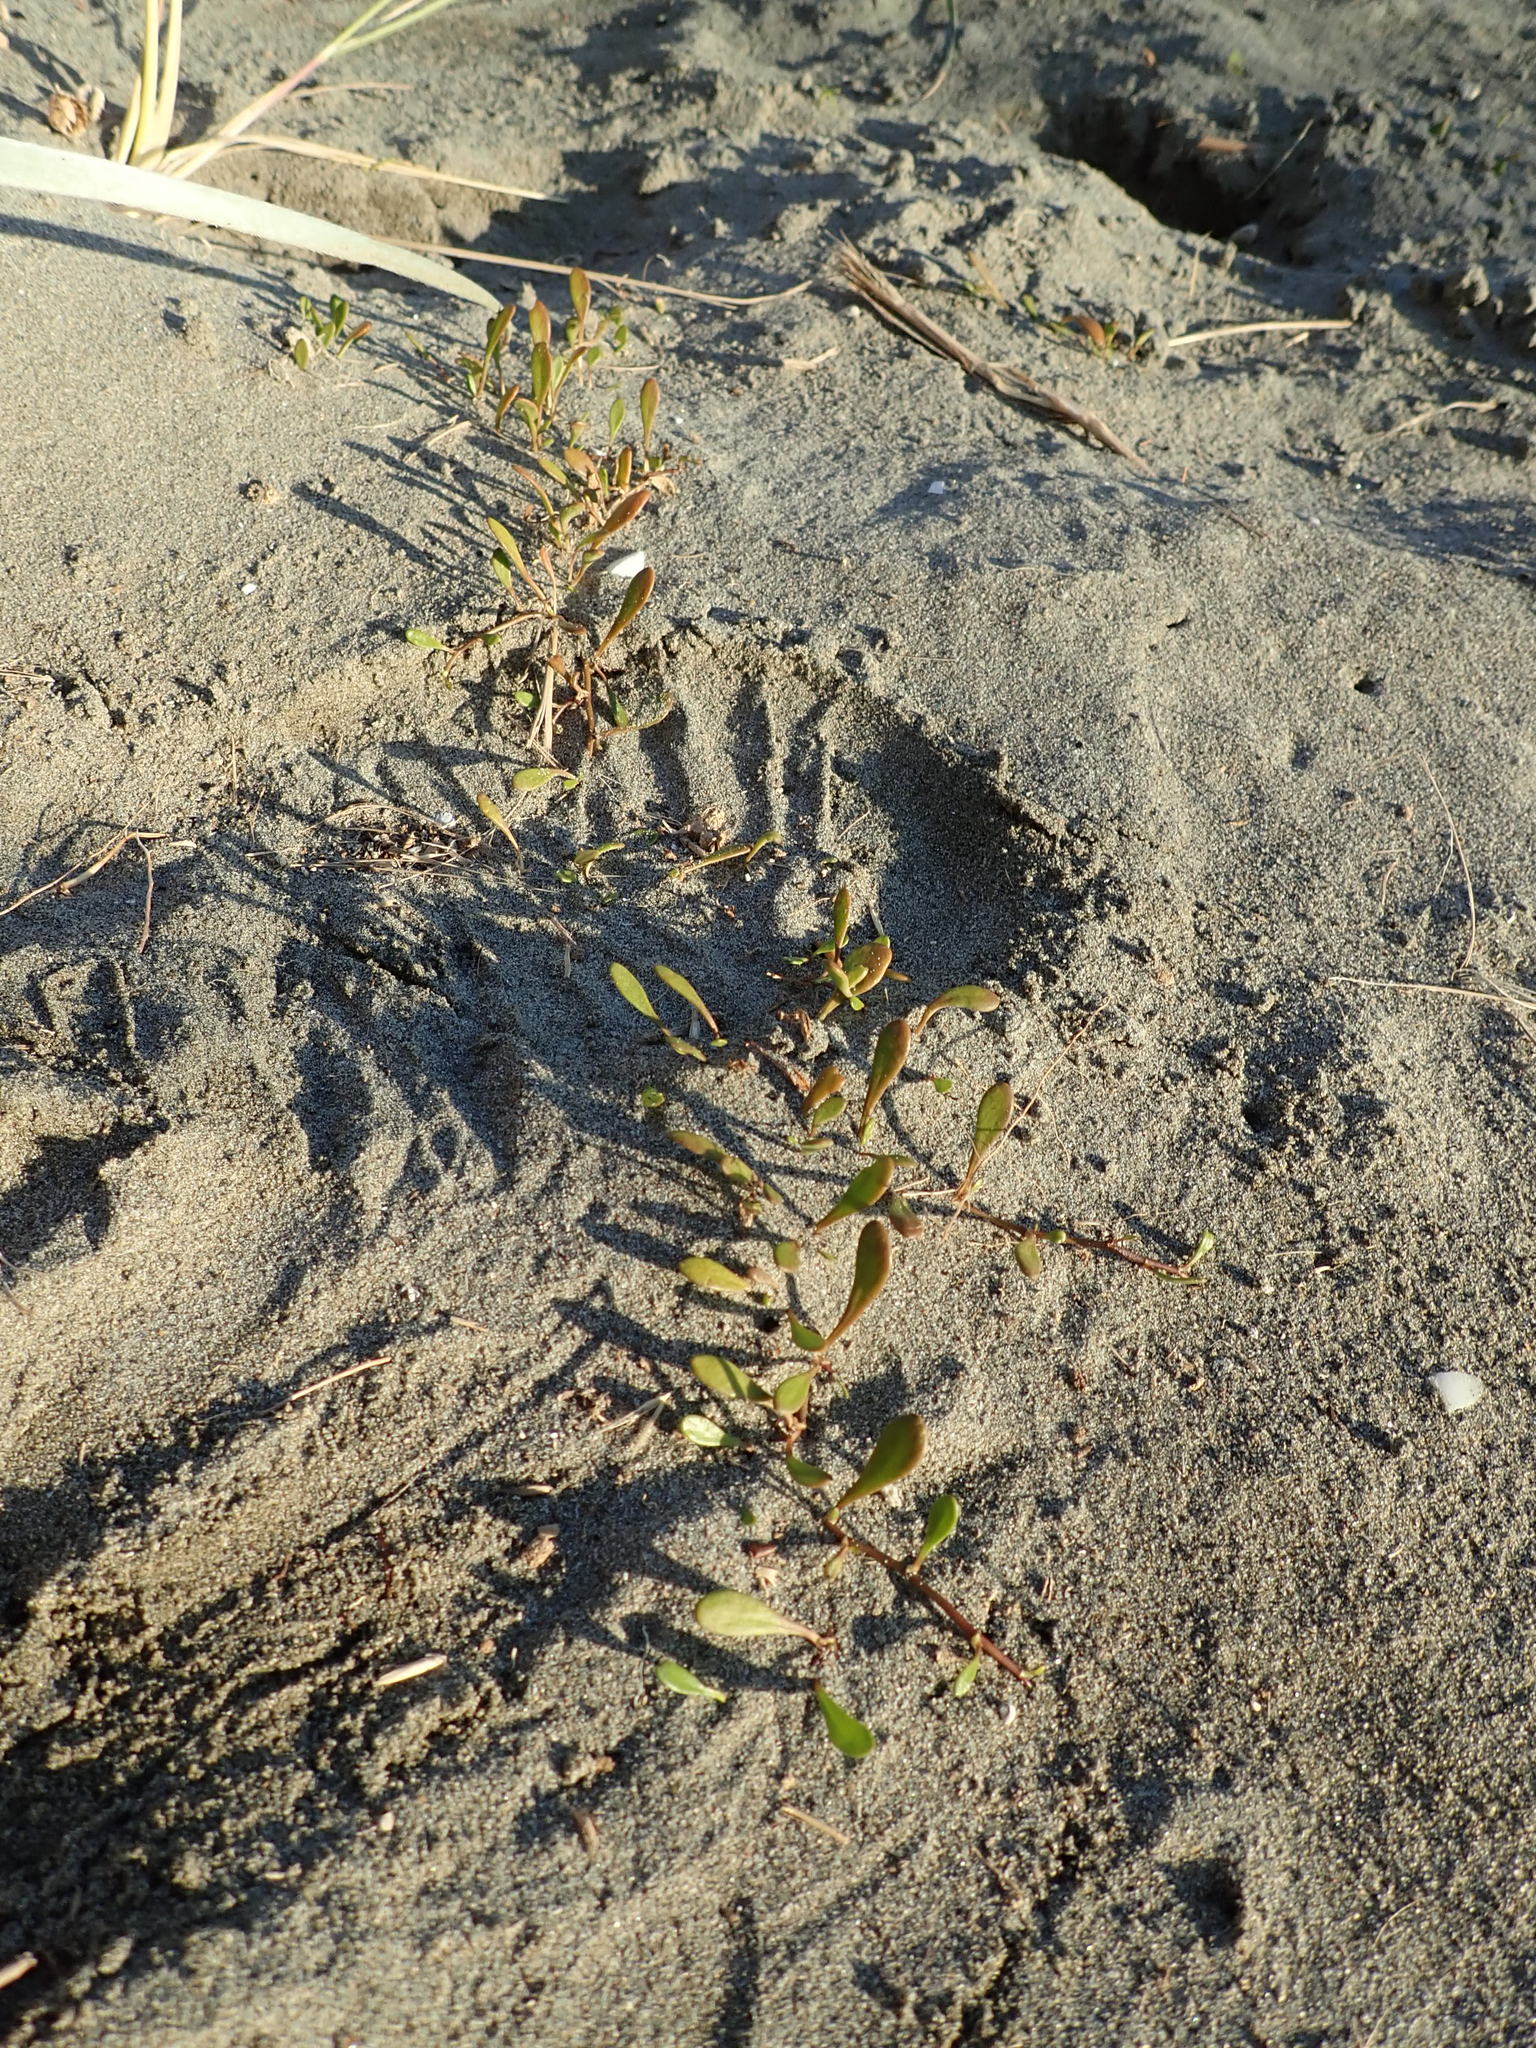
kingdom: Plantae
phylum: Tracheophyta
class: Magnoliopsida
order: Asterales
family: Goodeniaceae
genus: Goodenia
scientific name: Goodenia radicans
